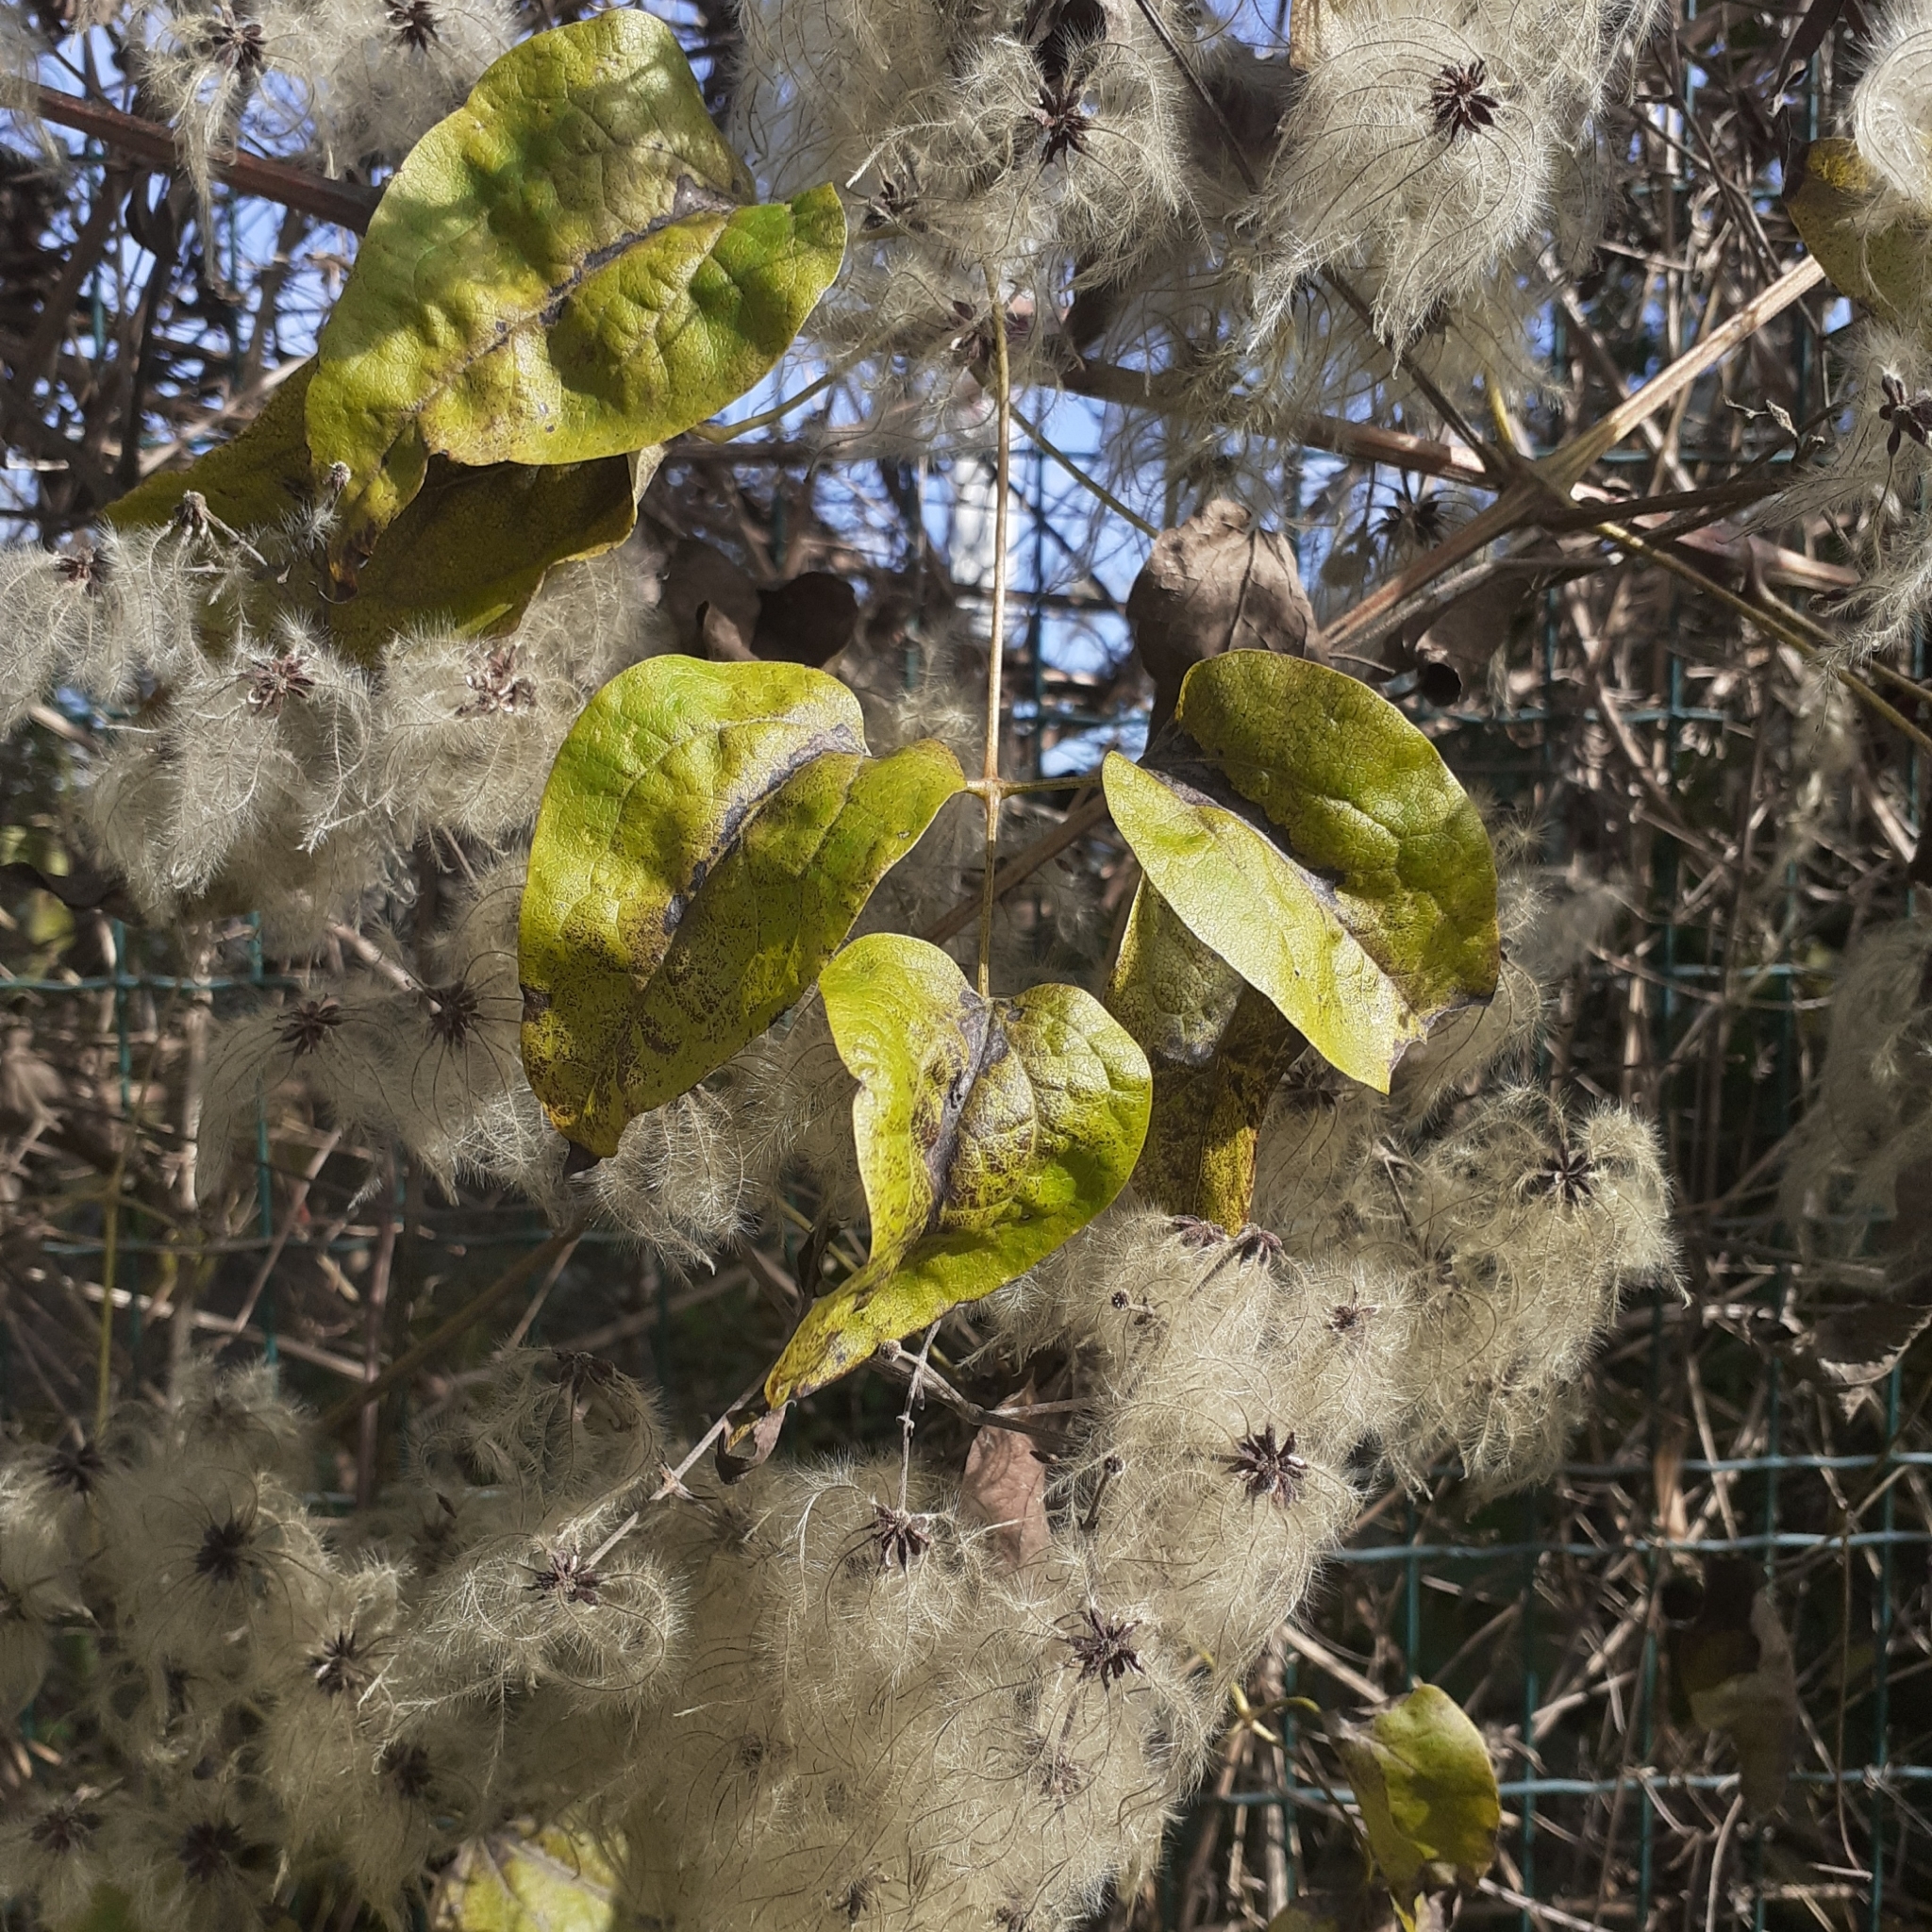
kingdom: Plantae
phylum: Tracheophyta
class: Magnoliopsida
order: Ranunculales
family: Ranunculaceae
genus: Clematis
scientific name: Clematis vitalba
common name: Evergreen clematis
